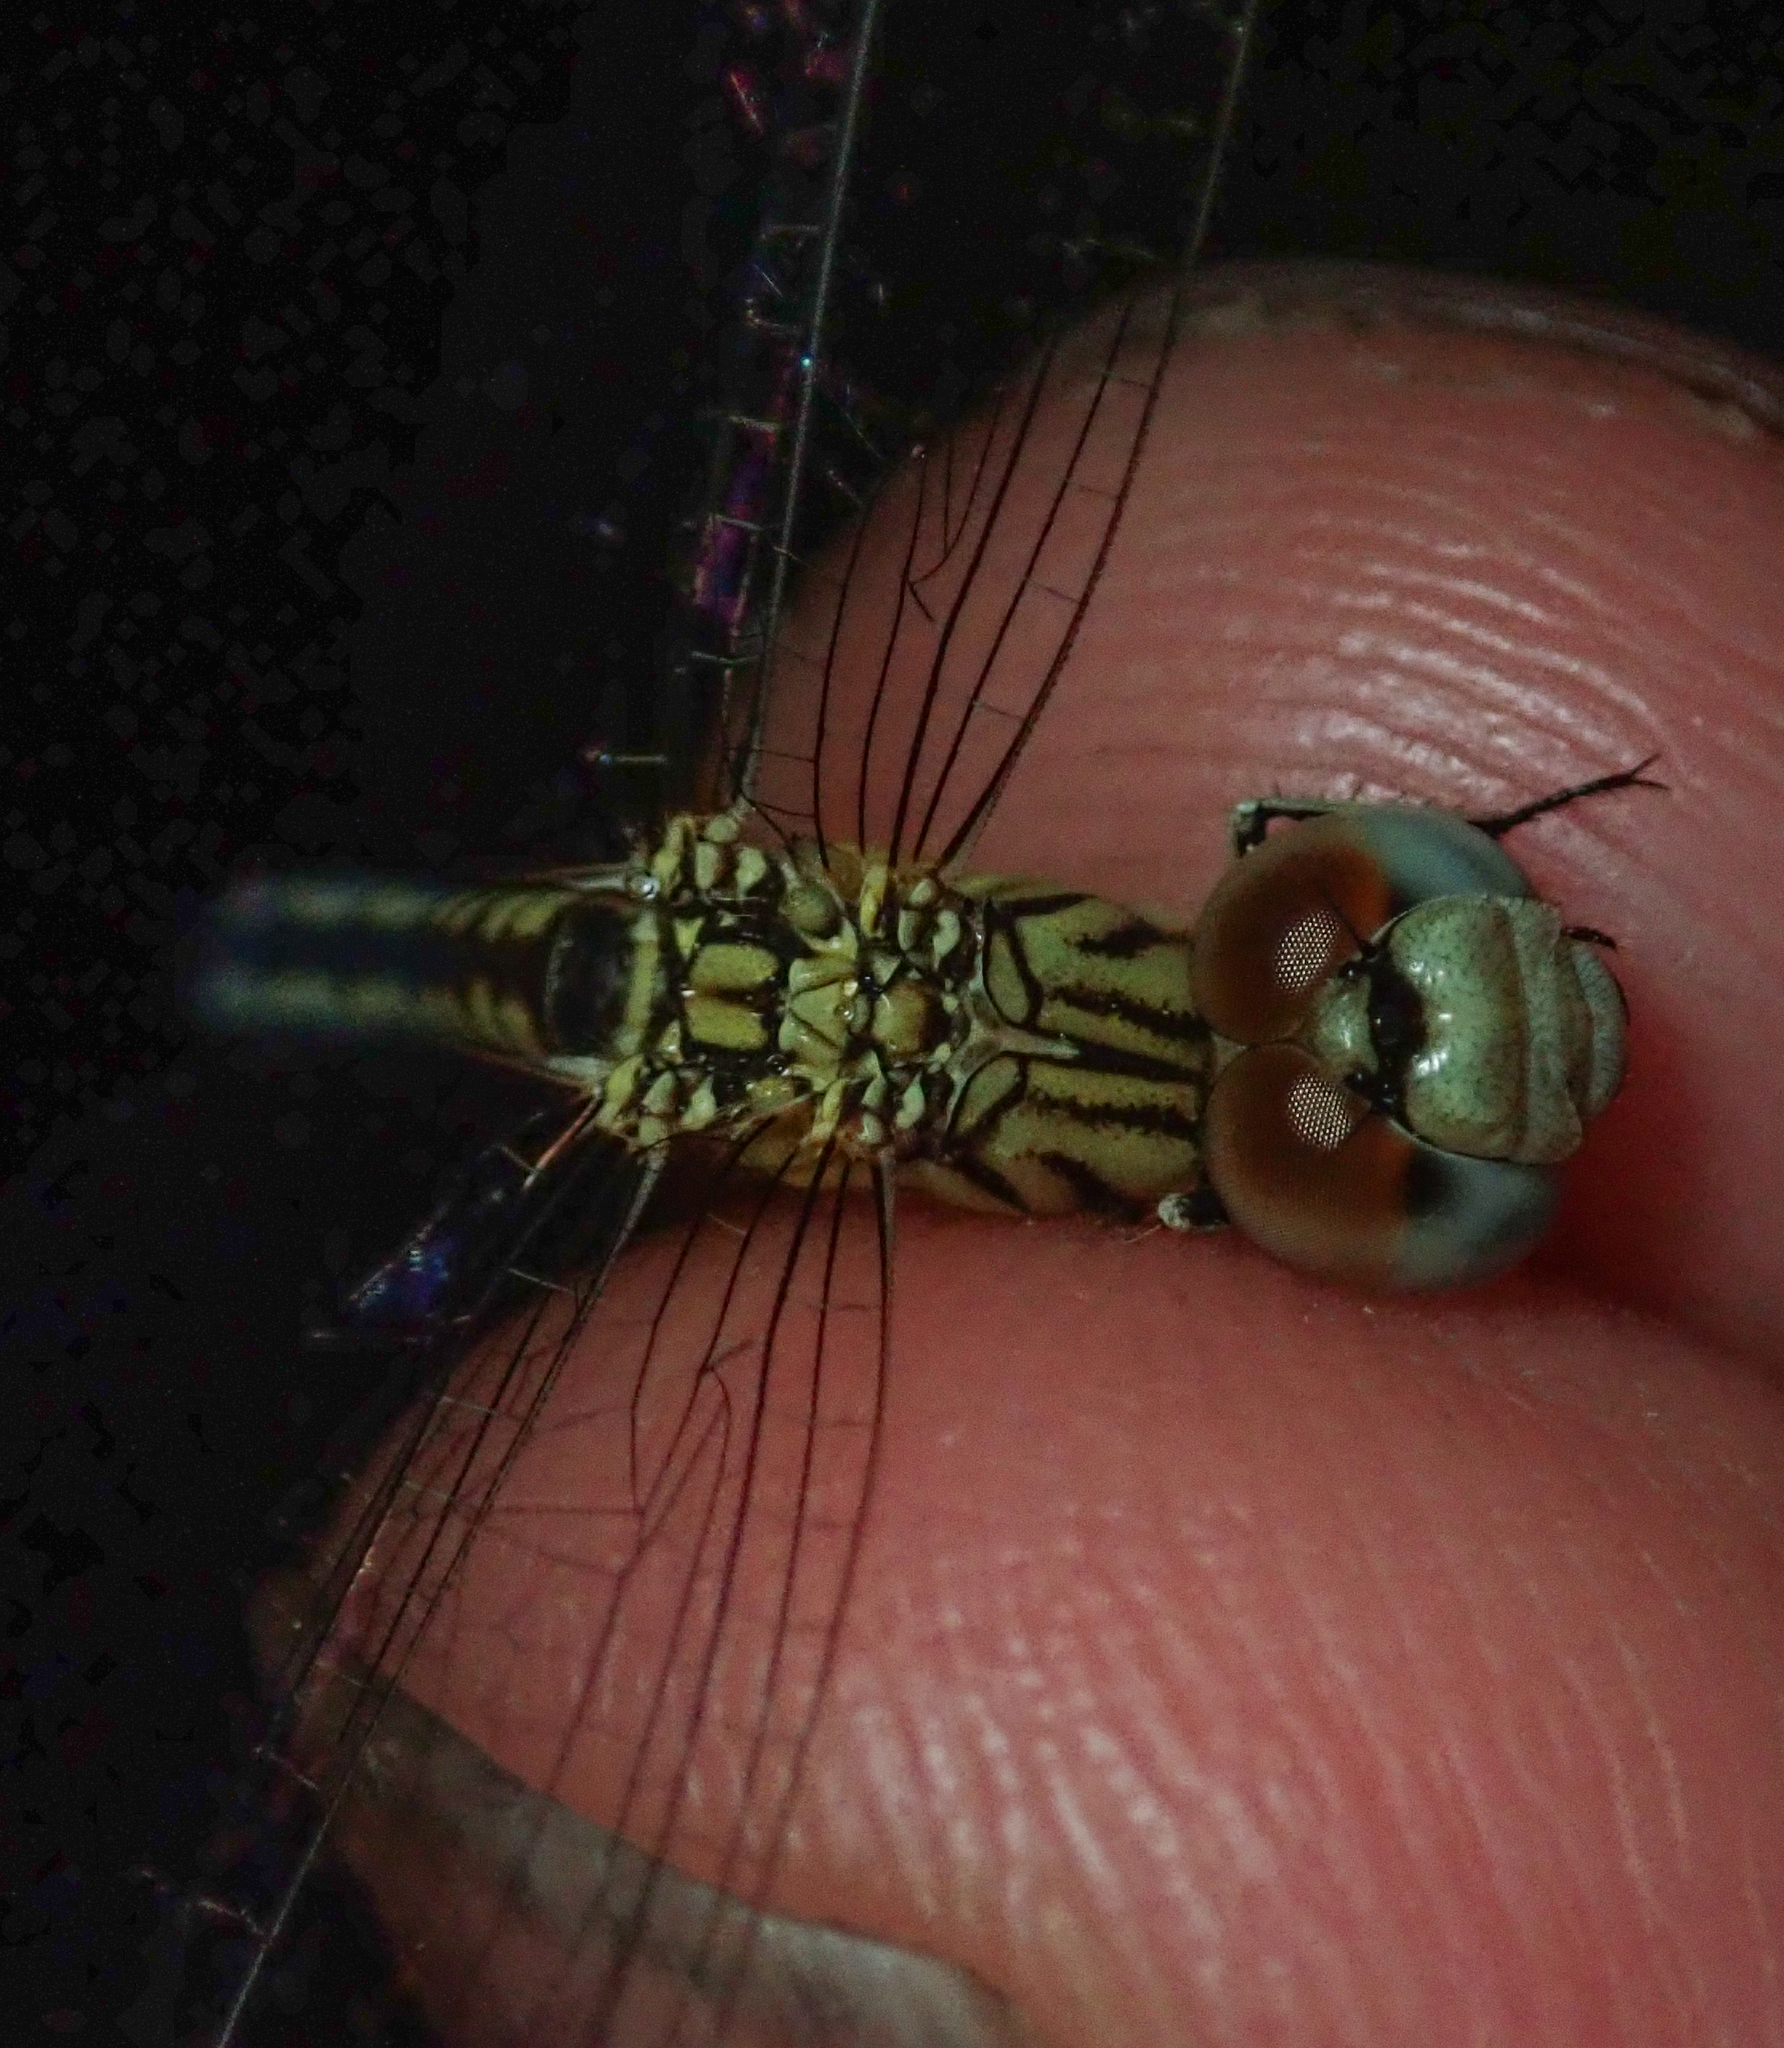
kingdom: Animalia
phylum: Arthropoda
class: Insecta
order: Odonata
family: Libellulidae
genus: Diplacodes
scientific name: Diplacodes deminuta
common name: Little percher
